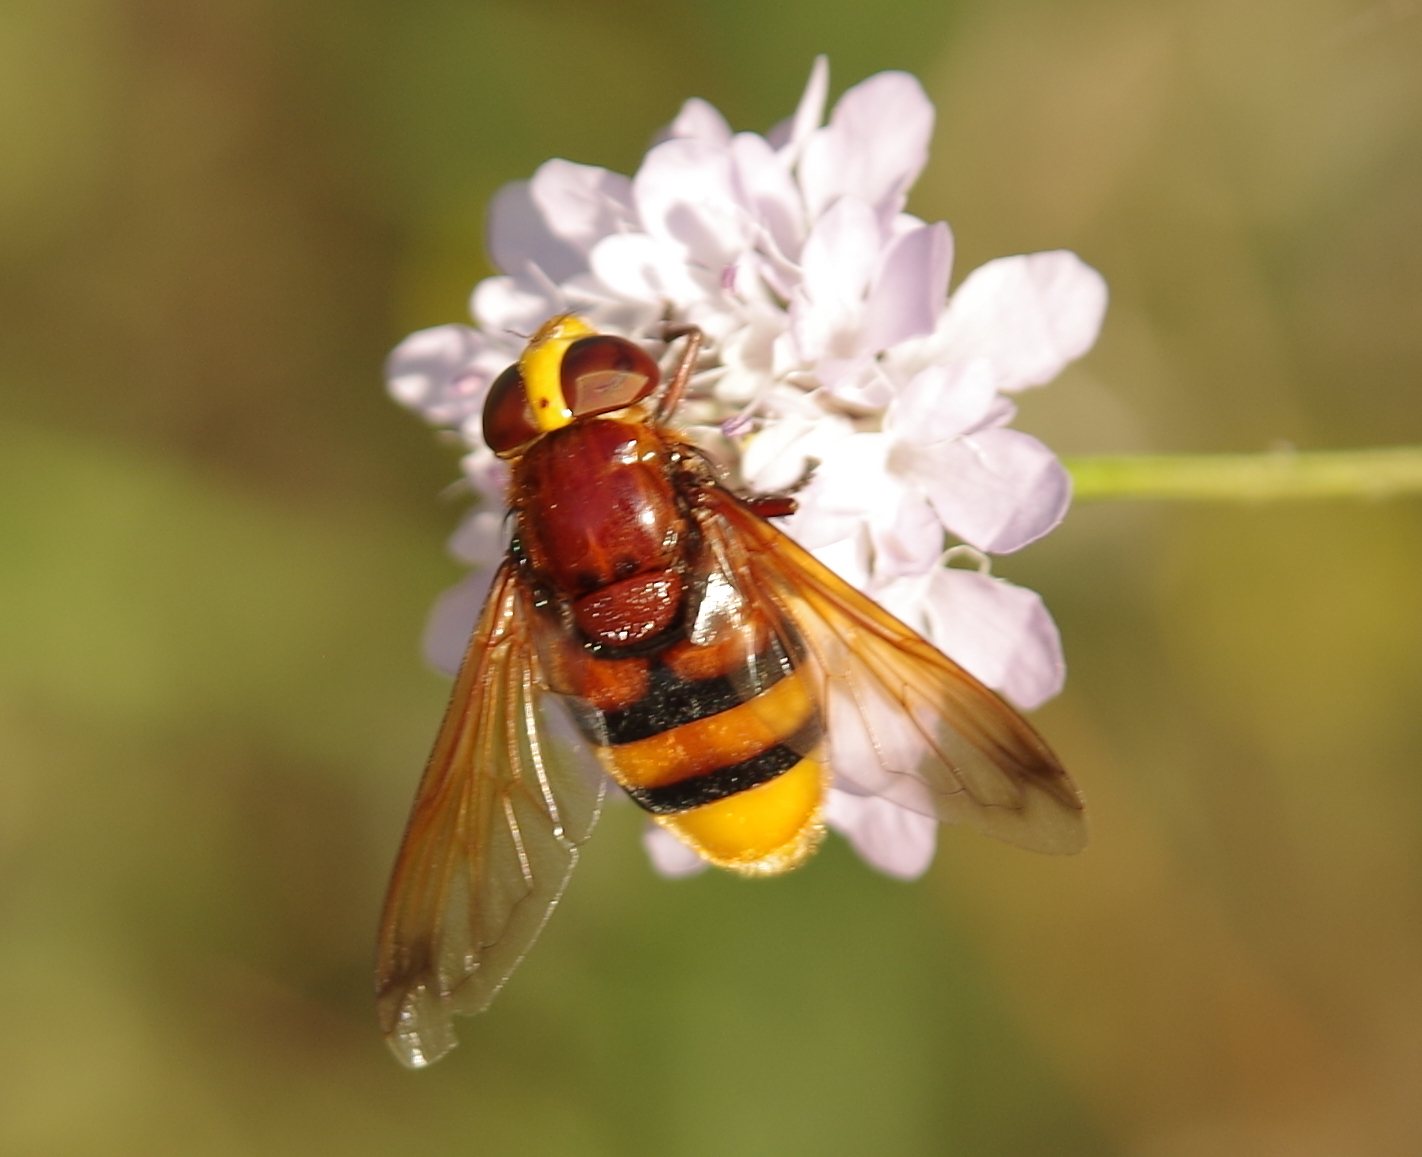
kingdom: Animalia
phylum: Arthropoda
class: Insecta
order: Diptera
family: Syrphidae
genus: Volucella
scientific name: Volucella zonaria
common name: Hornet hoverfly
